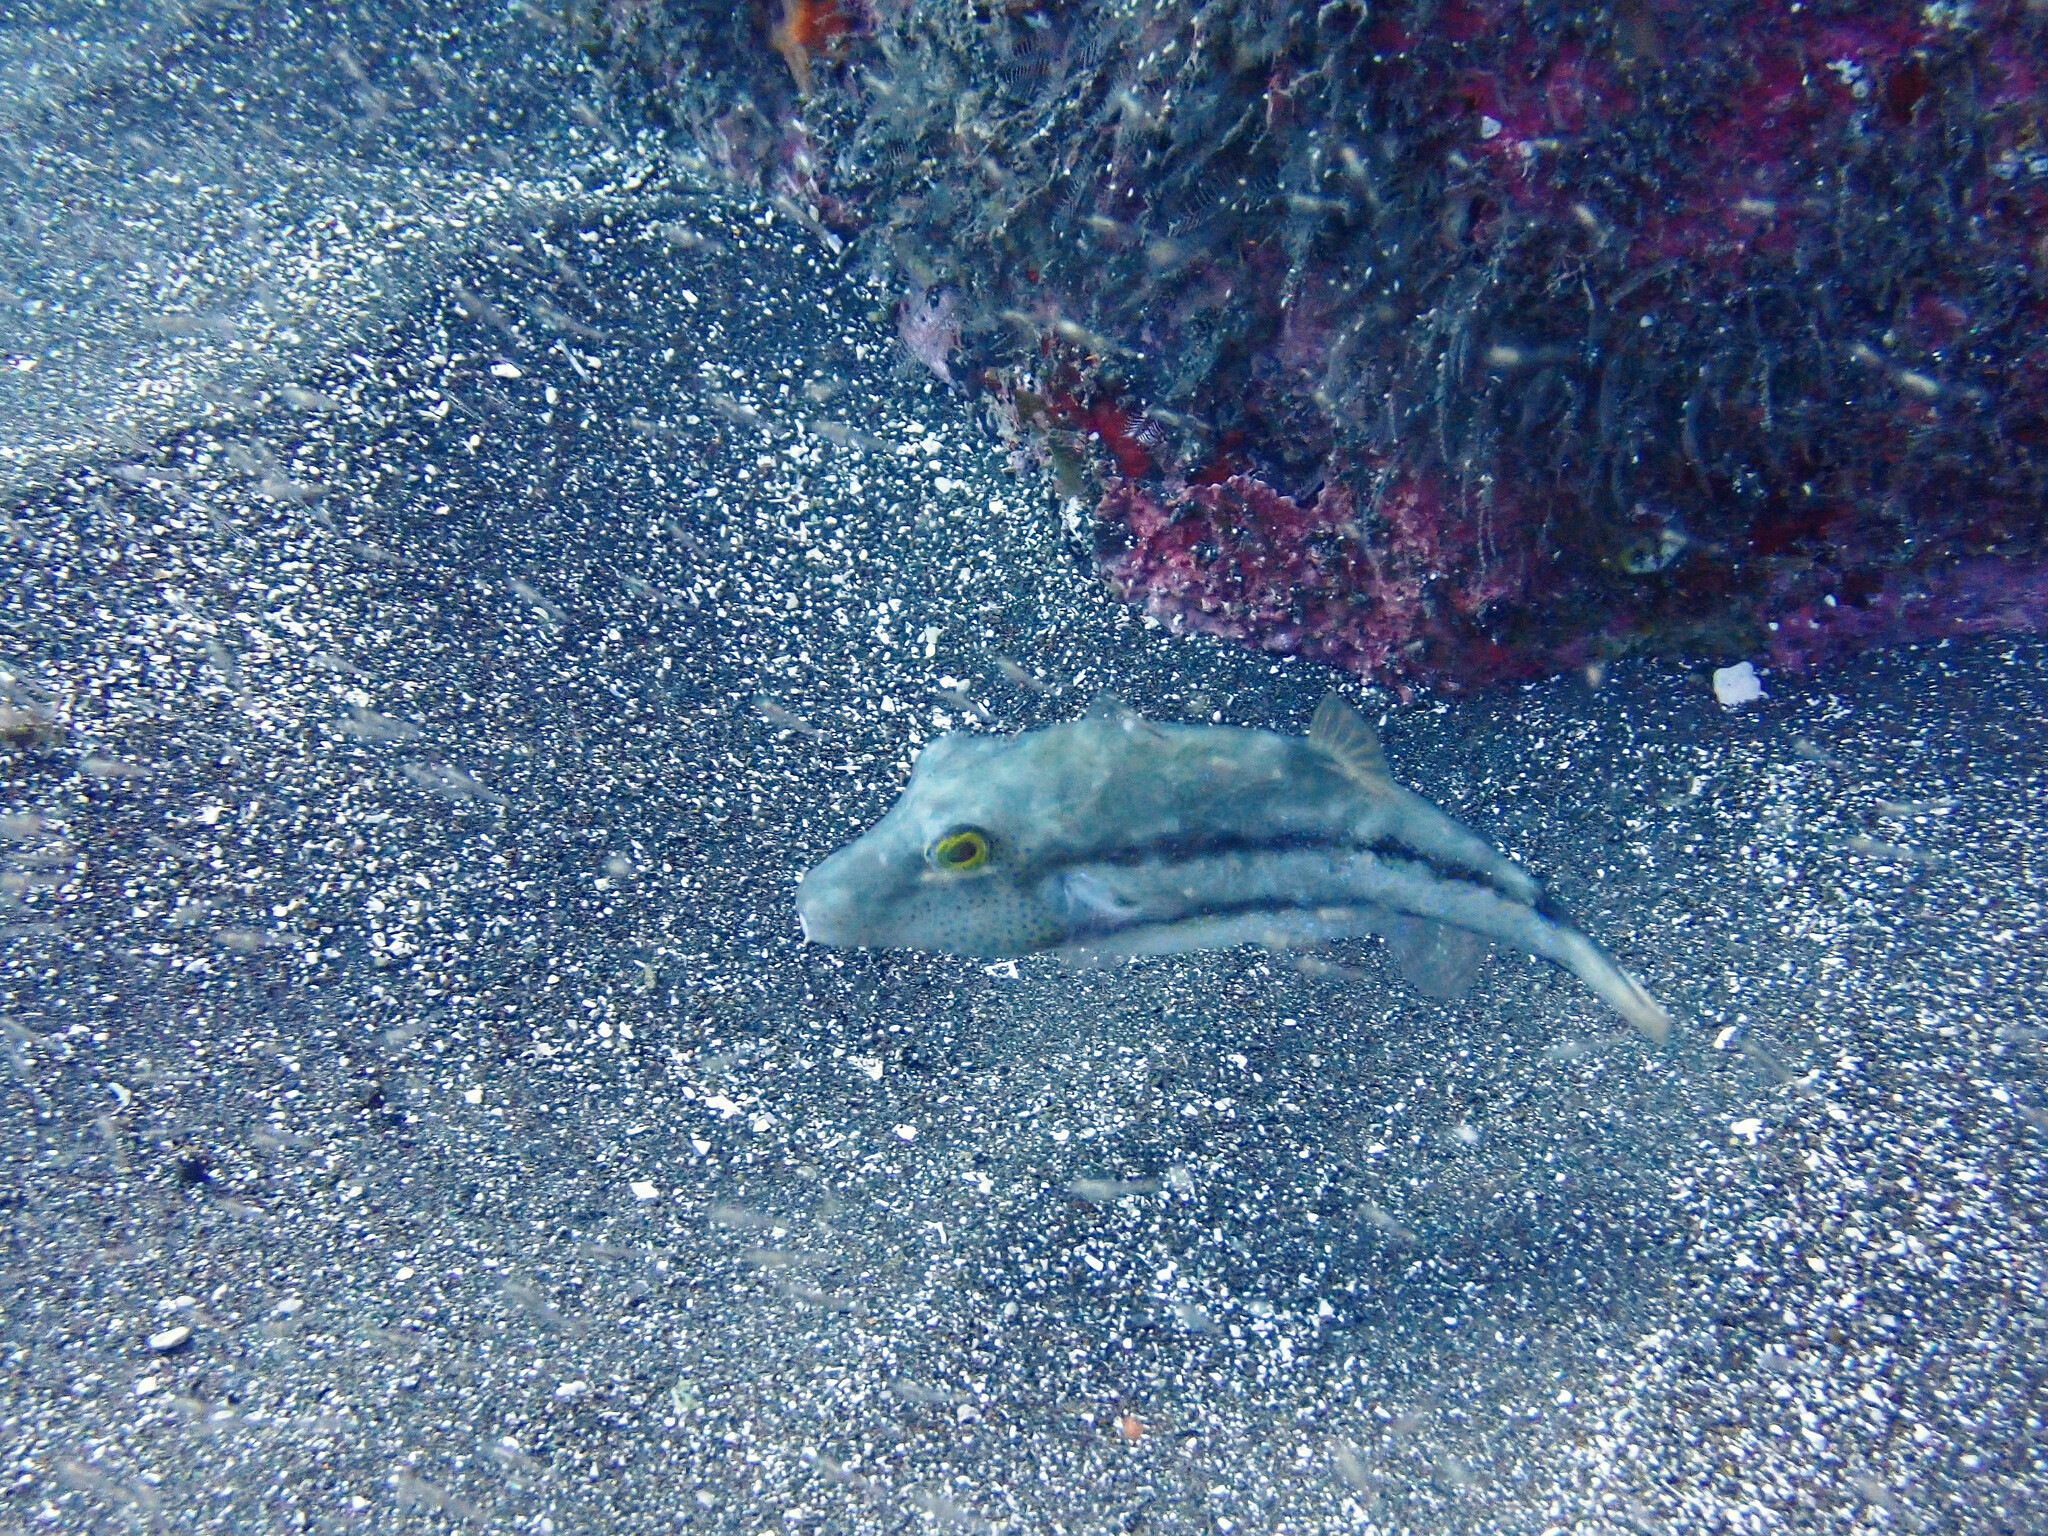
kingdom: Animalia
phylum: Chordata
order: Tetraodontiformes
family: Tetraodontidae
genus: Canthigaster
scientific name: Canthigaster capistrata
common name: Macaronesian sharpnose-puffer
